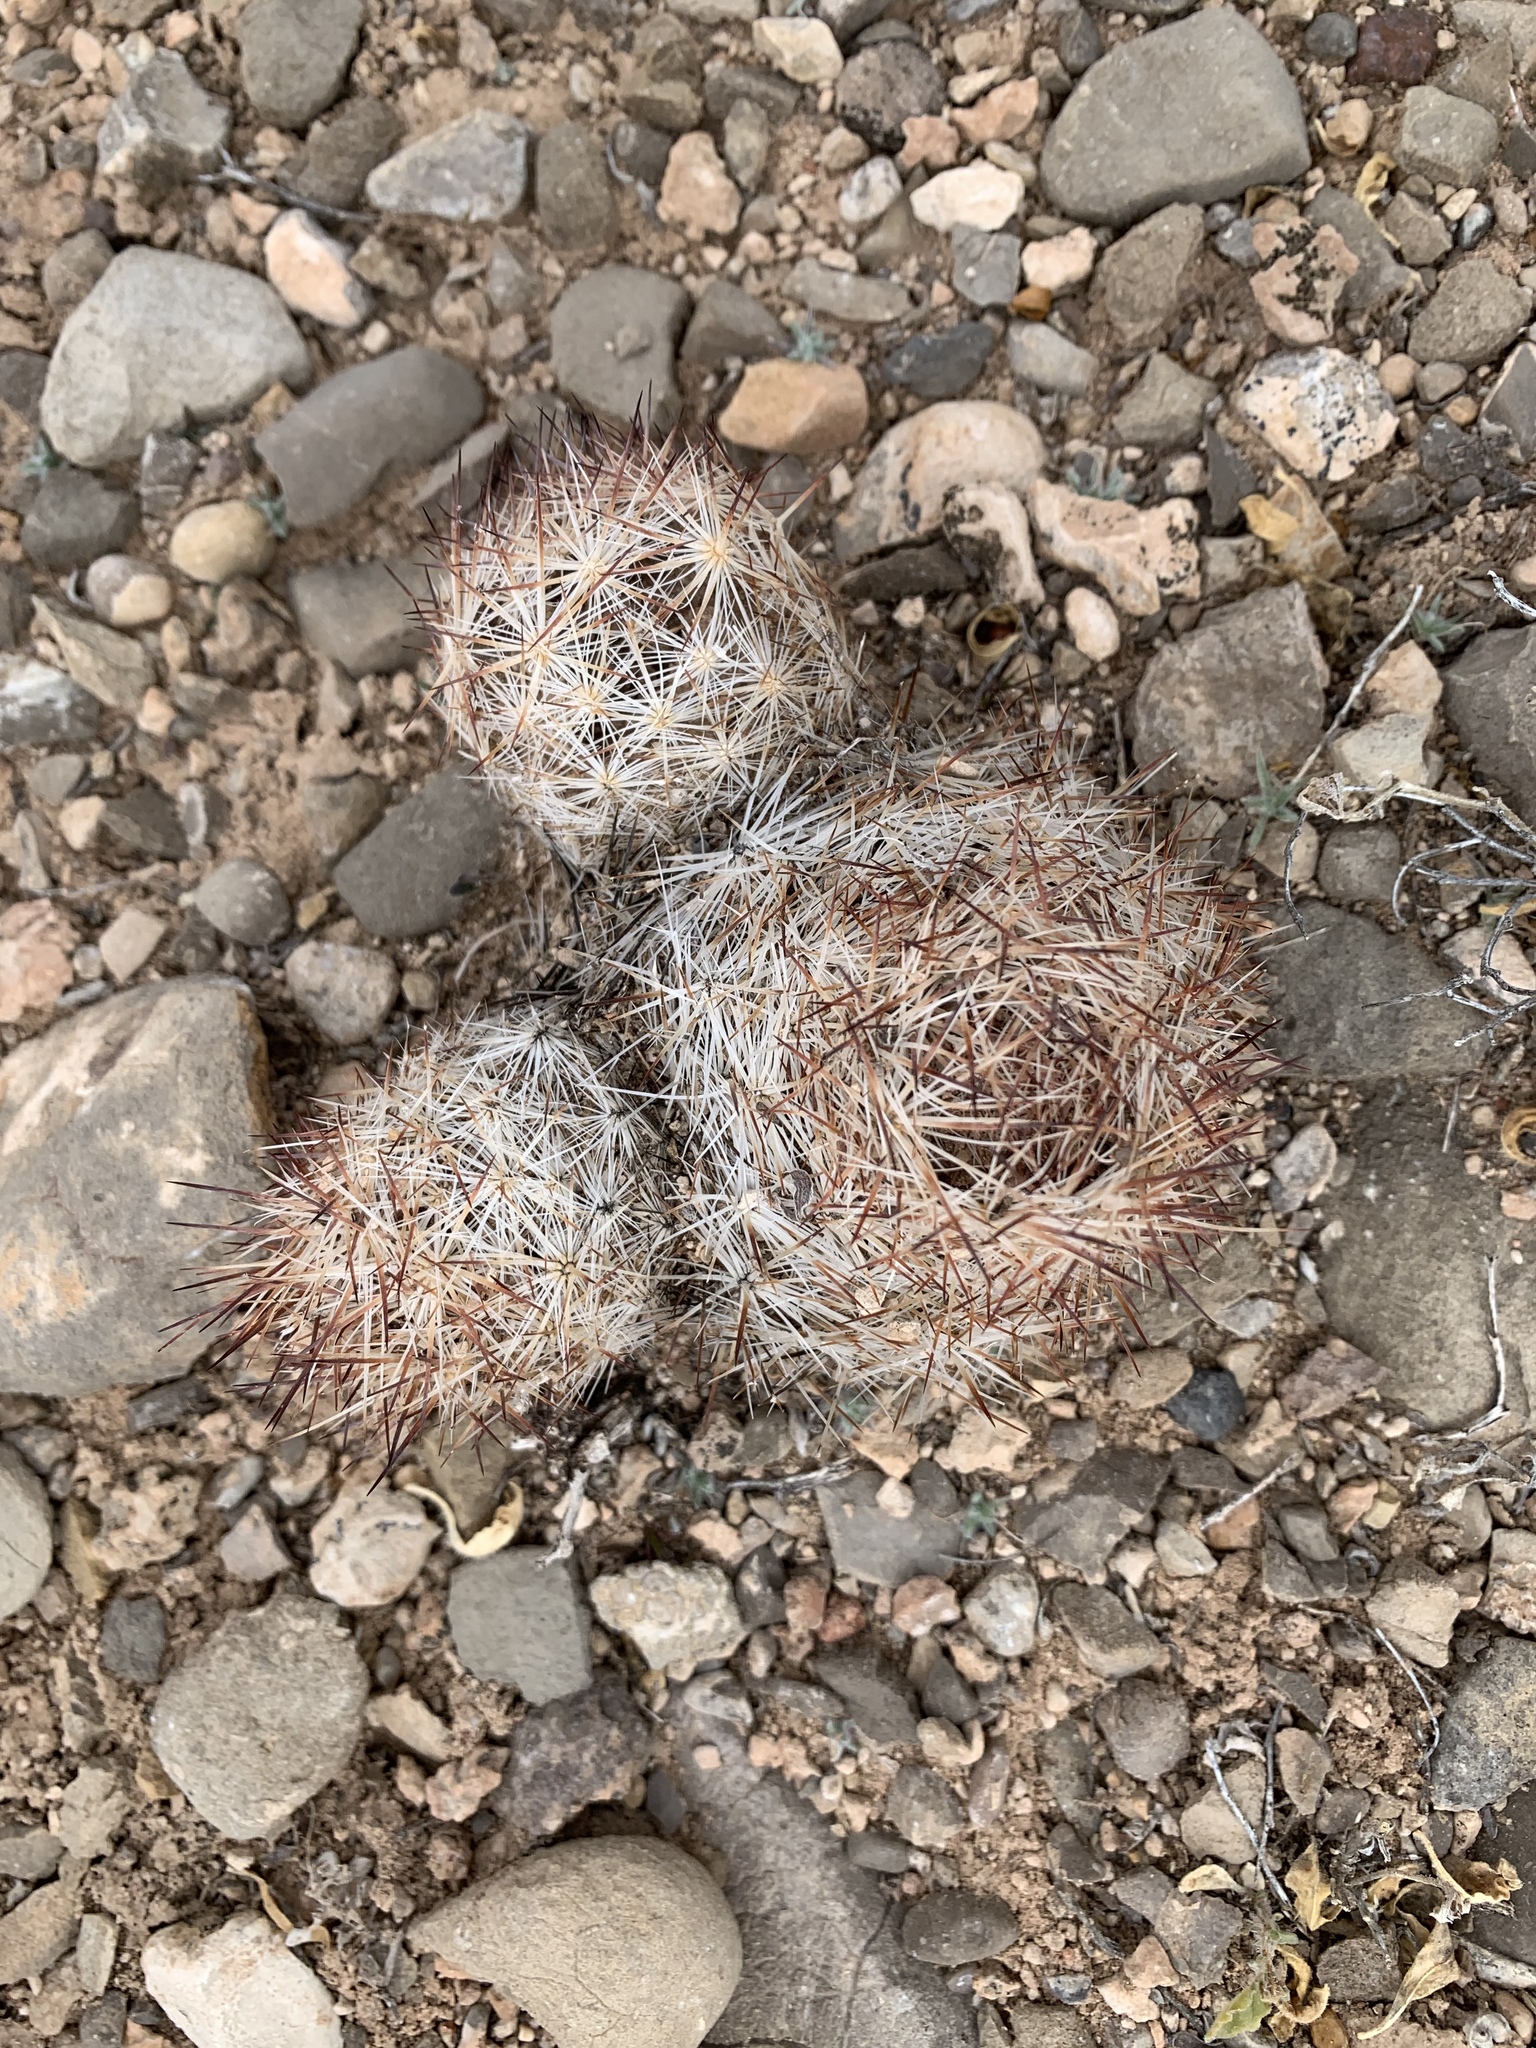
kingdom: Plantae
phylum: Tracheophyta
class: Magnoliopsida
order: Caryophyllales
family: Cactaceae
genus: Pelecyphora
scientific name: Pelecyphora vivipara
